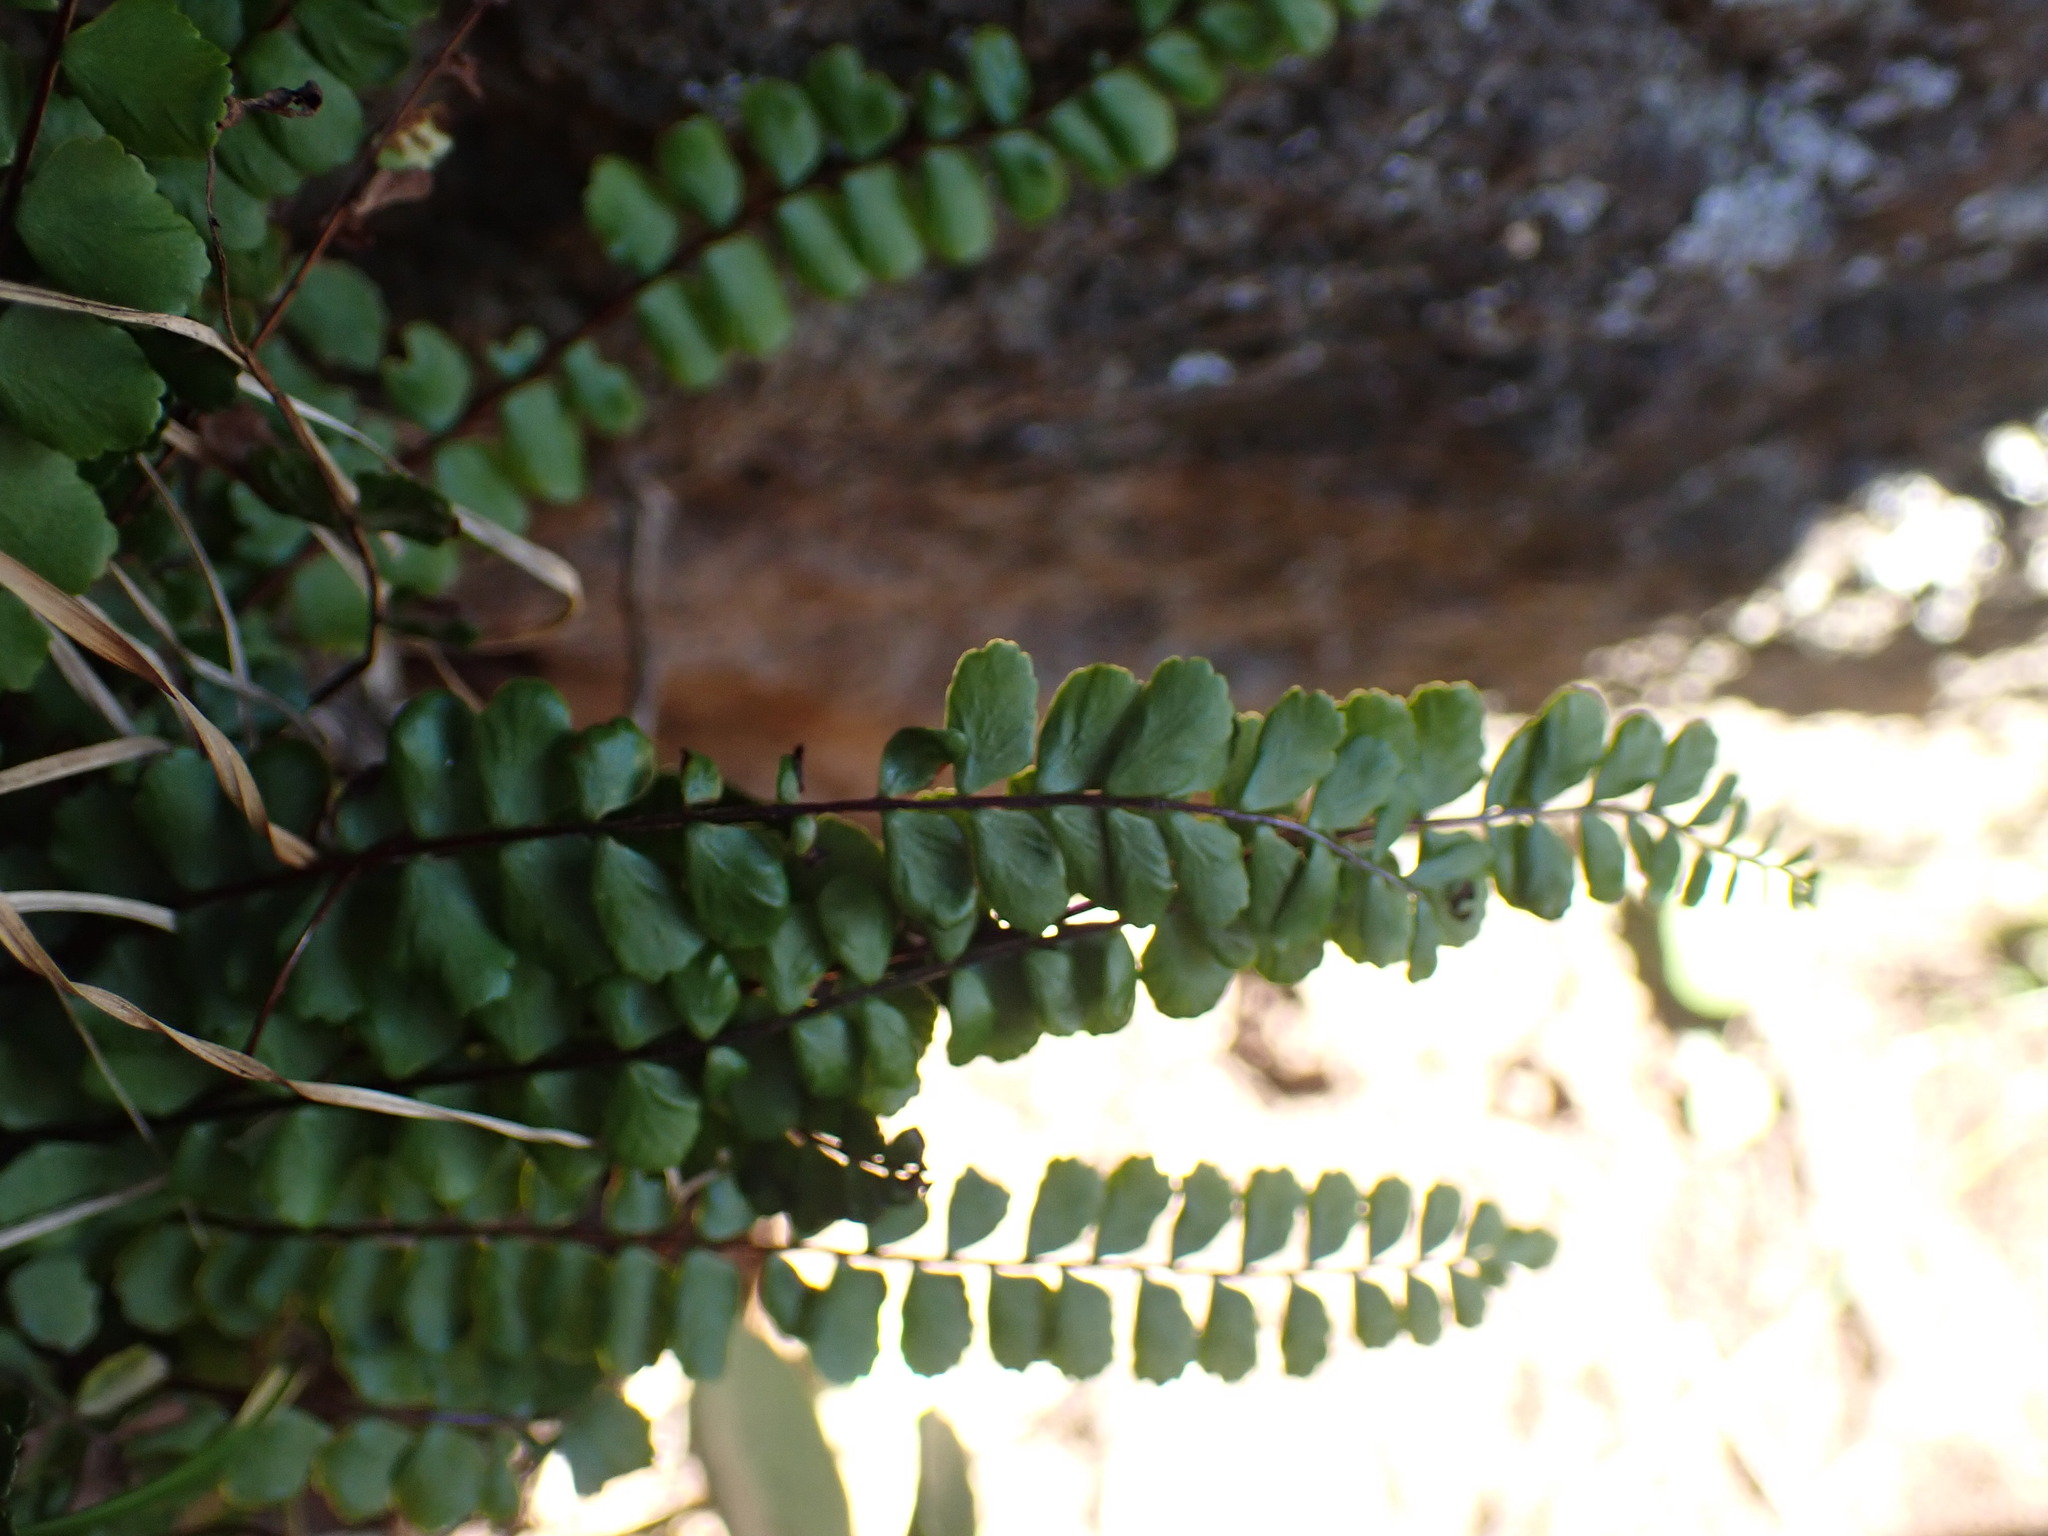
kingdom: Plantae
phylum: Tracheophyta
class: Polypodiopsida
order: Polypodiales
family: Aspleniaceae
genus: Asplenium
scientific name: Asplenium trichomanes
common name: Maidenhair spleenwort
